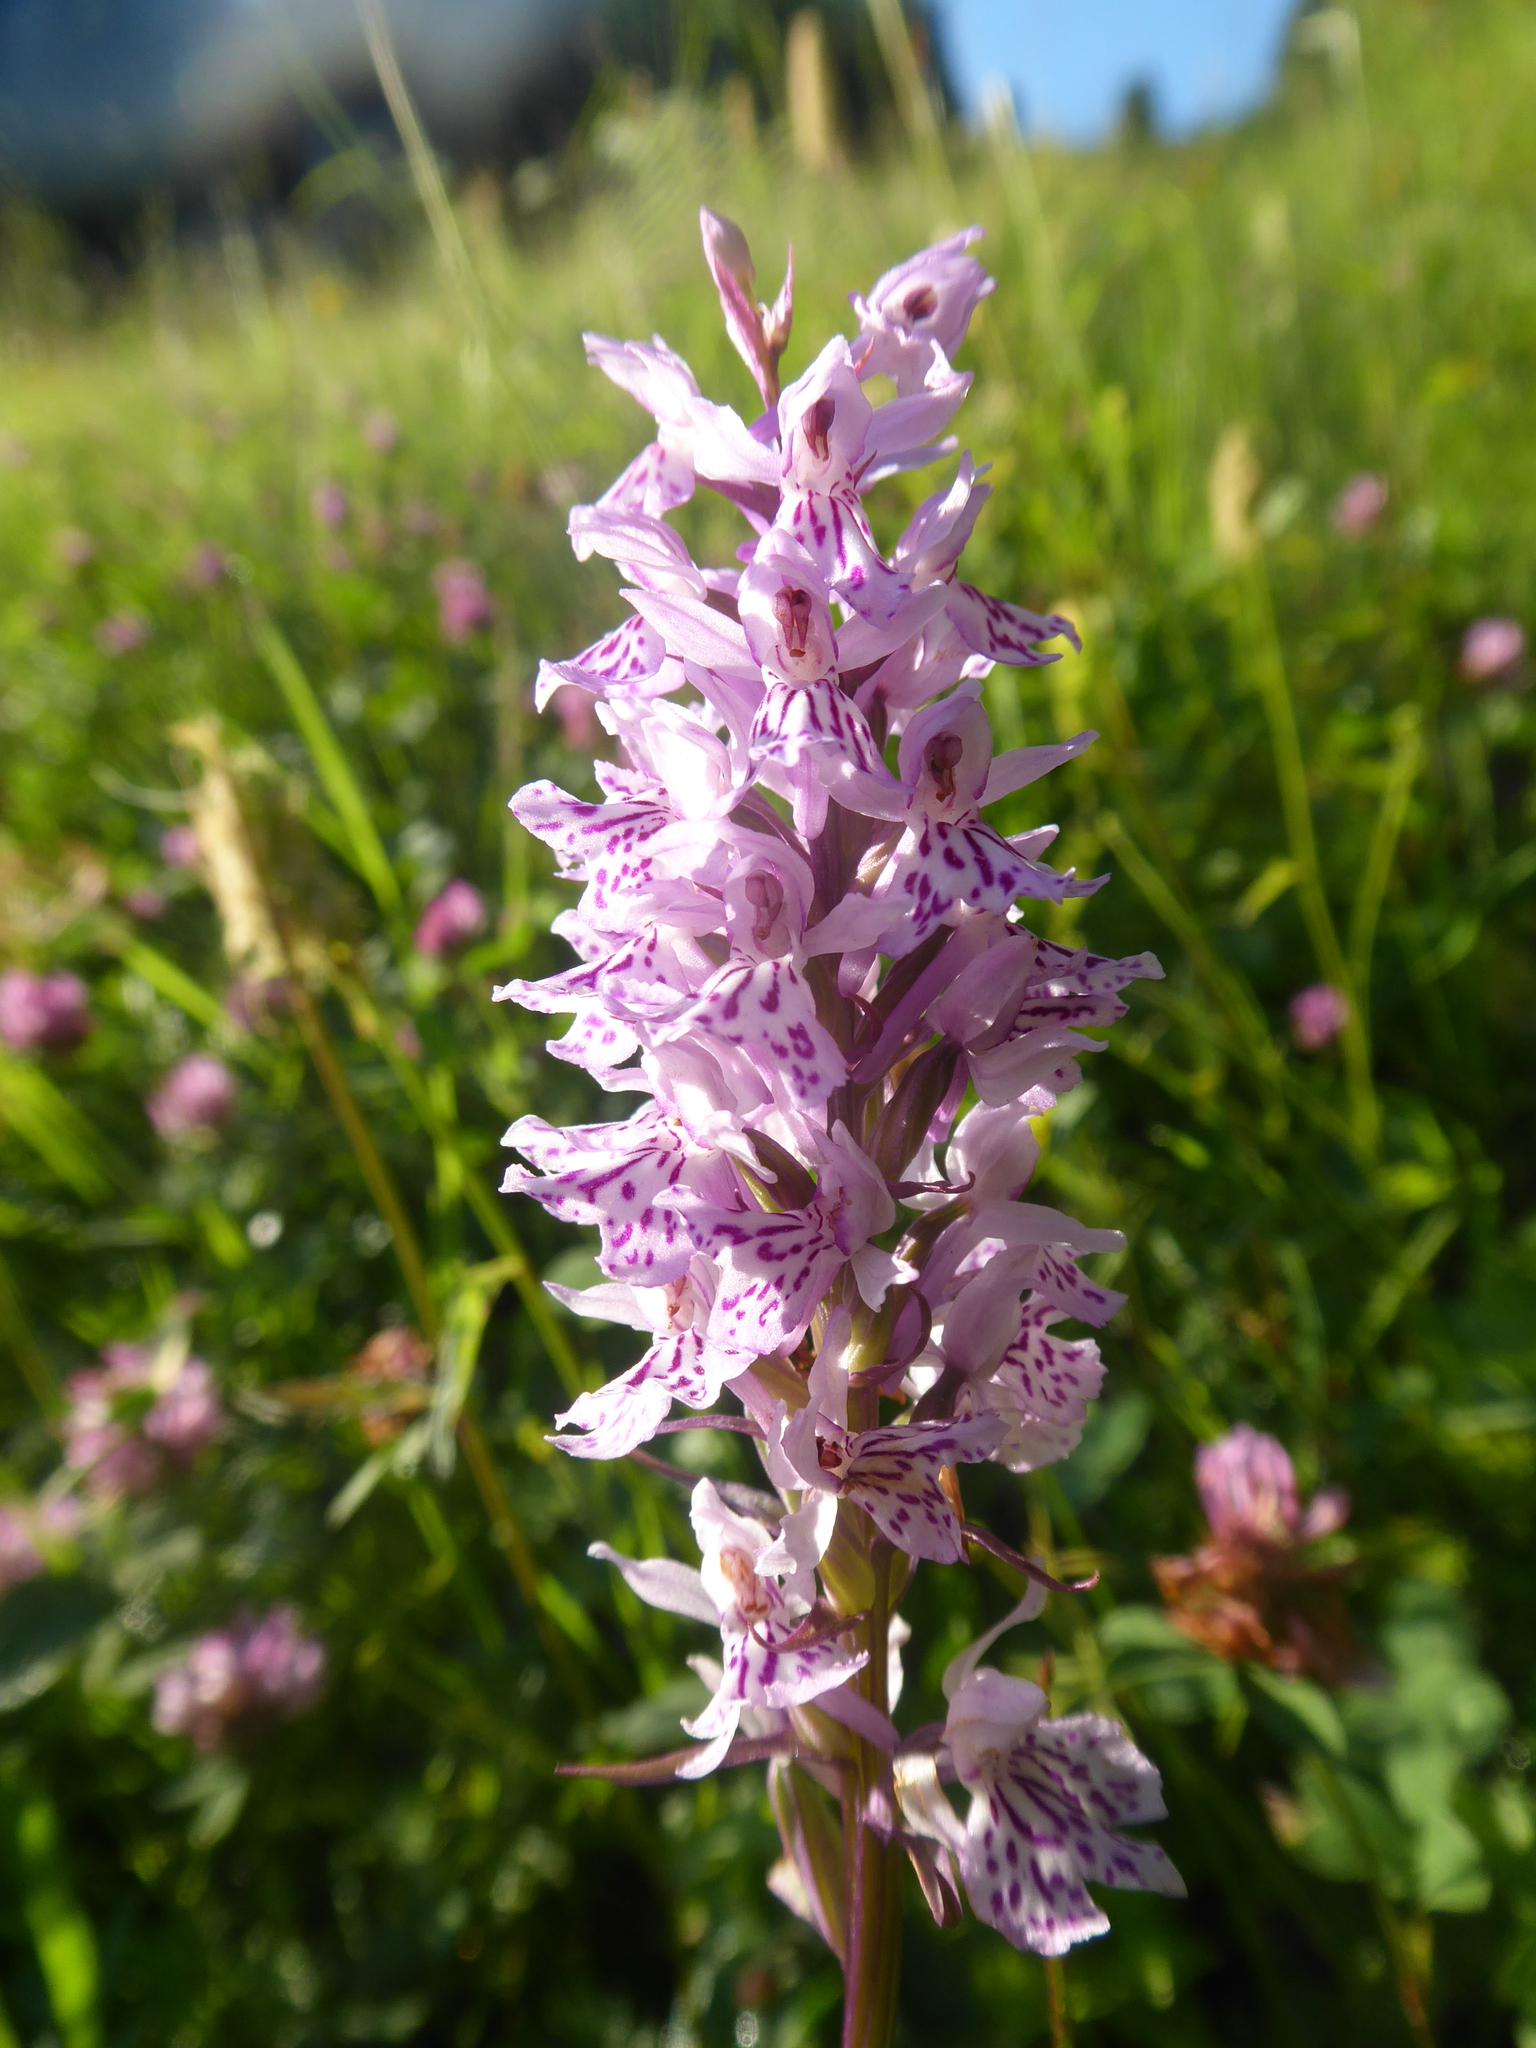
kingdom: Plantae
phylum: Tracheophyta
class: Liliopsida
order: Asparagales
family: Orchidaceae
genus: Dactylorhiza
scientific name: Dactylorhiza maculata
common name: Heath spotted-orchid
